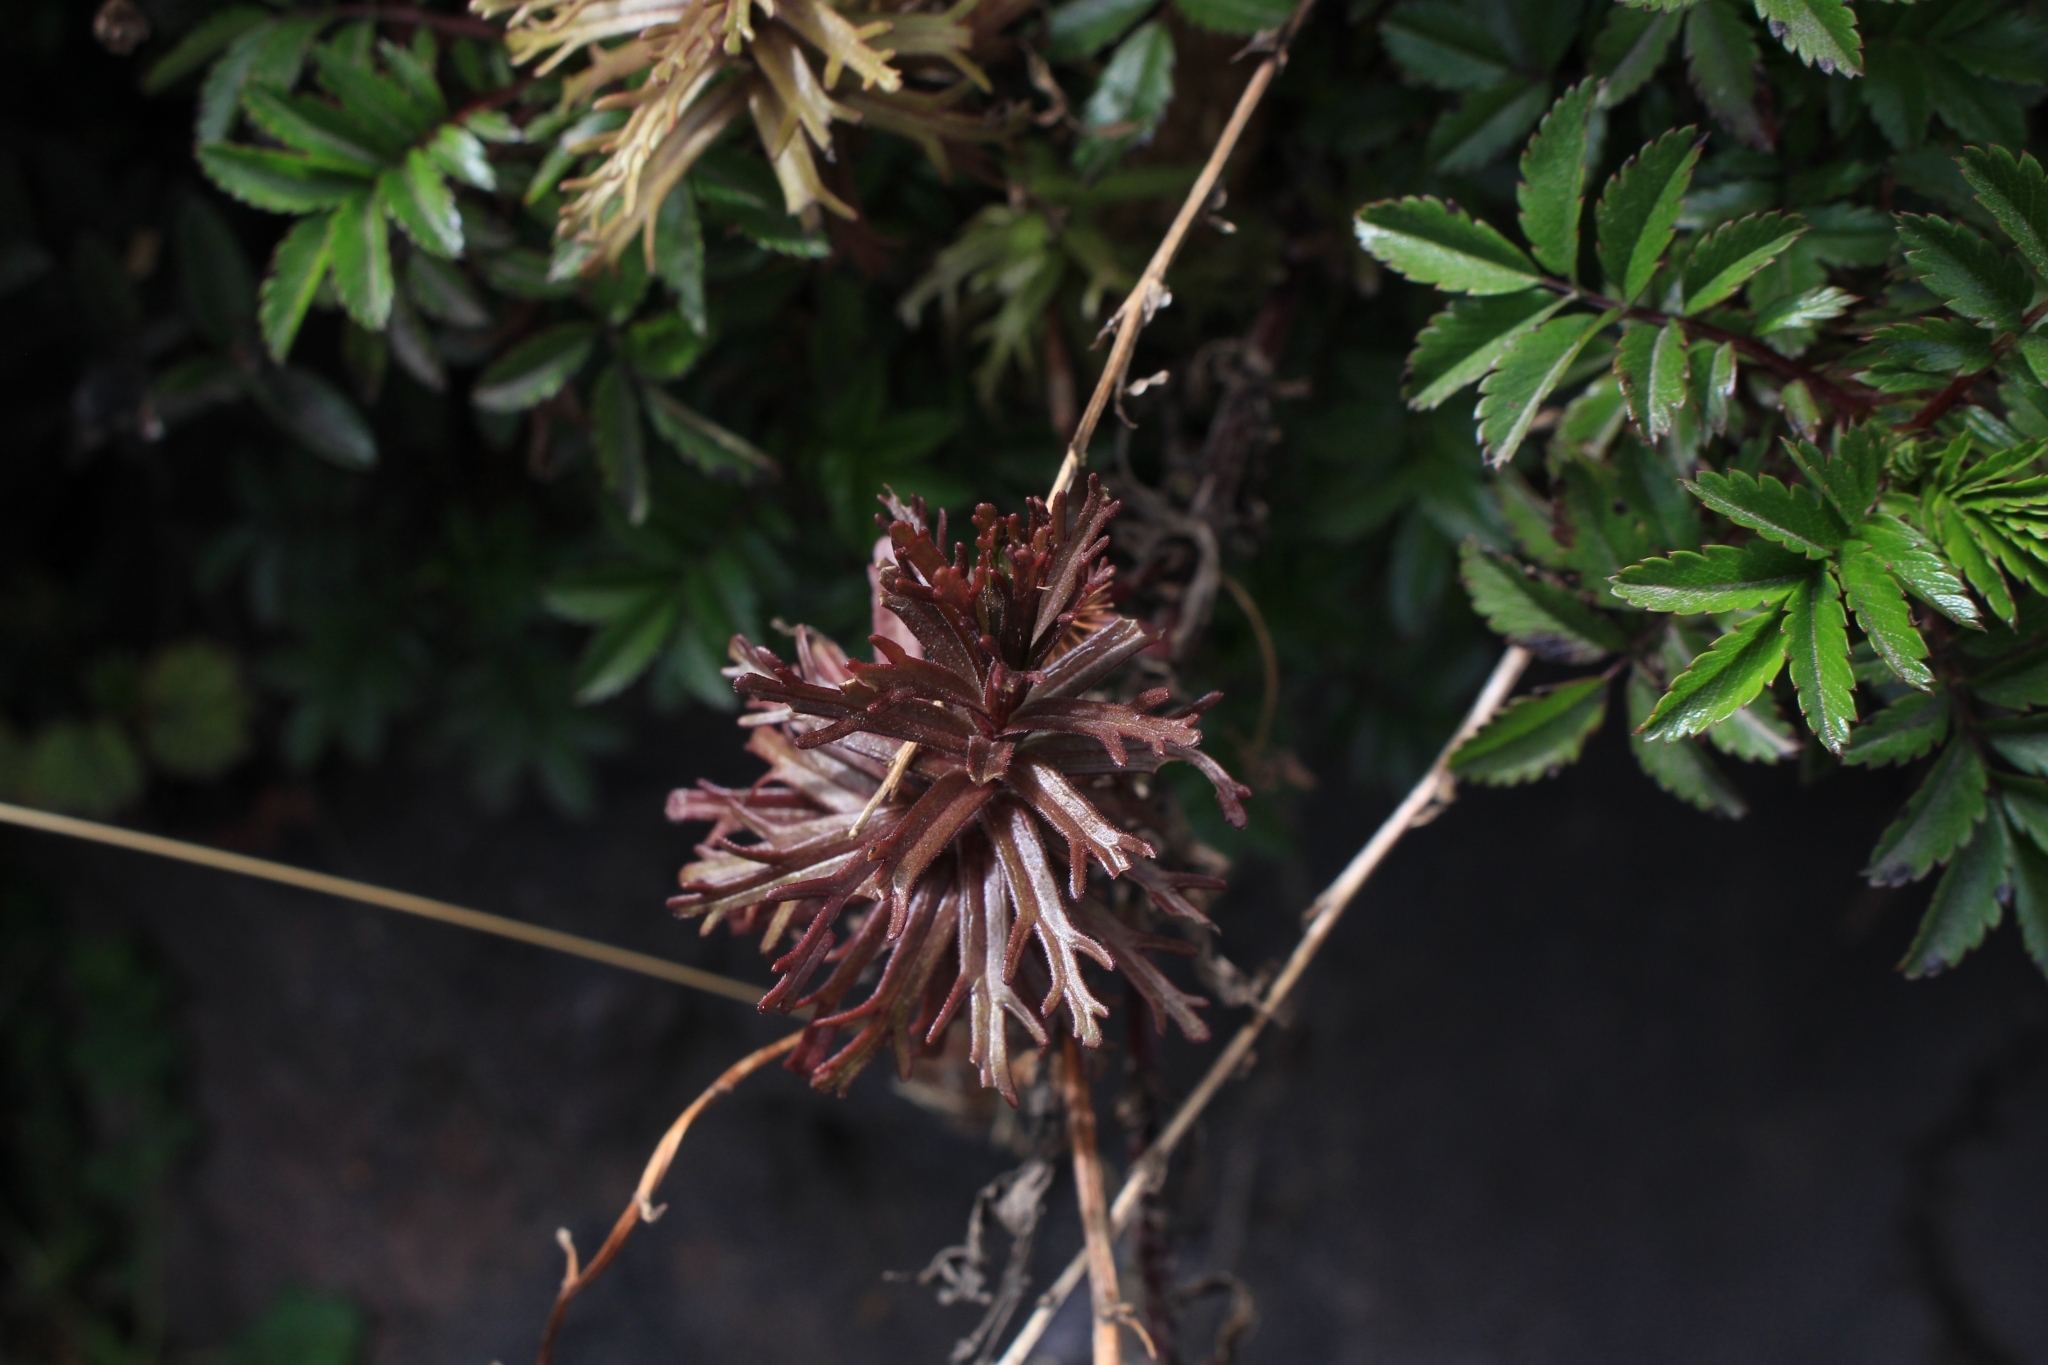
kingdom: Plantae
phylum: Tracheophyta
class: Magnoliopsida
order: Lamiales
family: Orobanchaceae
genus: Castilleja
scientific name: Castilleja irasuensis
